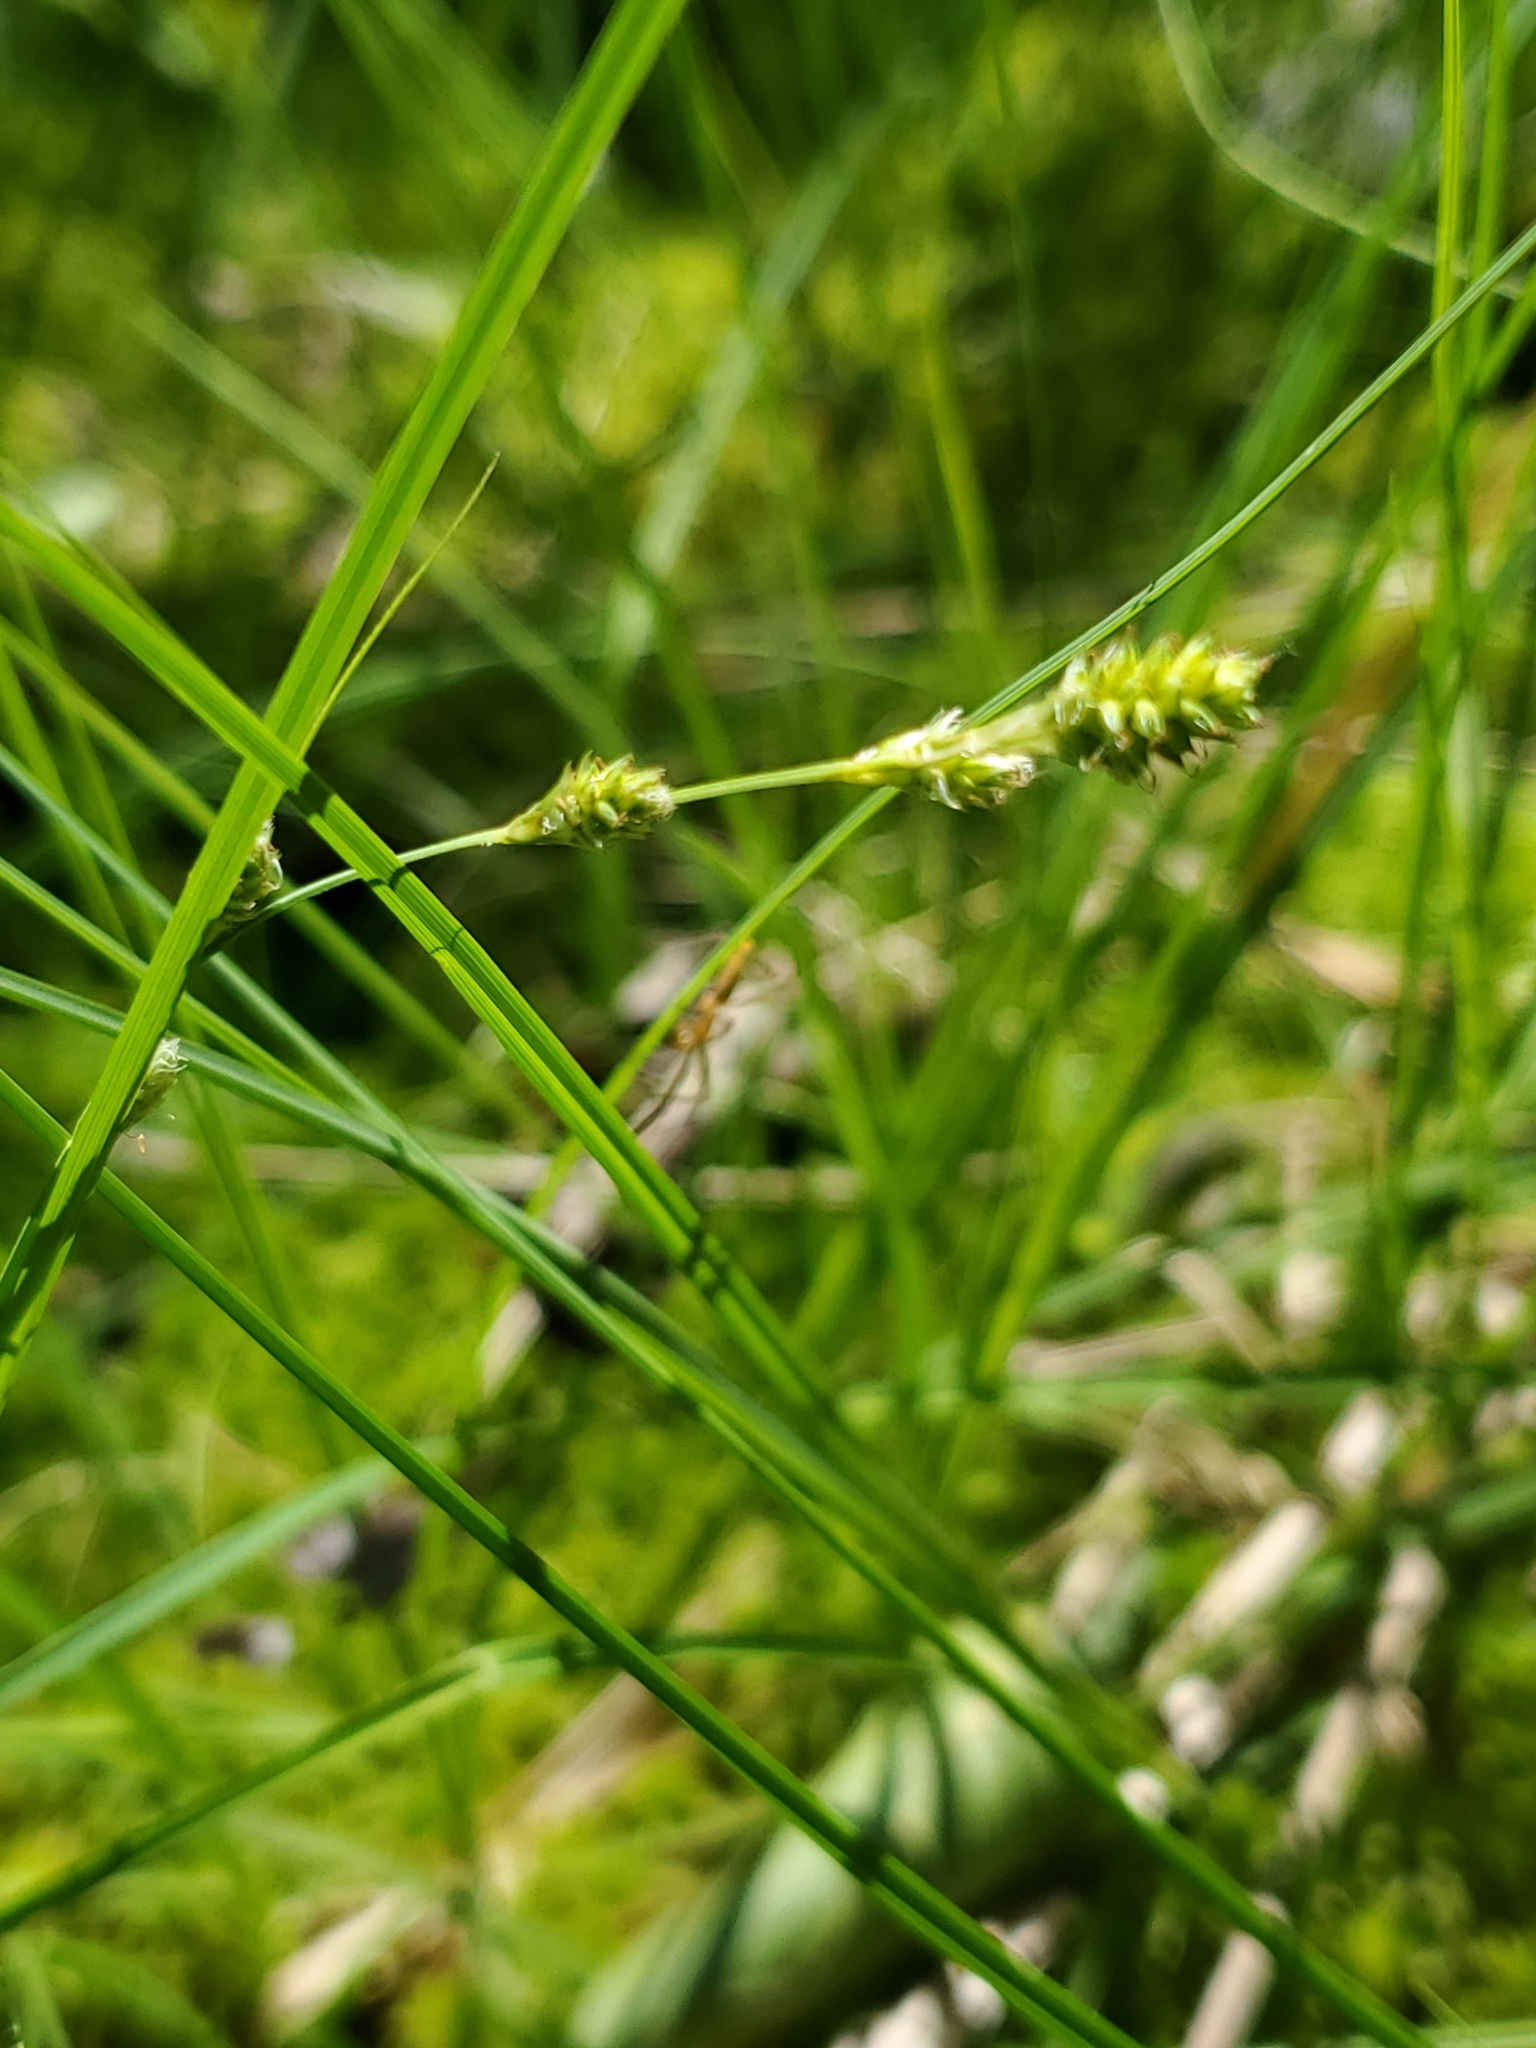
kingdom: Plantae
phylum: Tracheophyta
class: Liliopsida
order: Poales
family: Cyperaceae
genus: Carex
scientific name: Carex canescens
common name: White sedge
